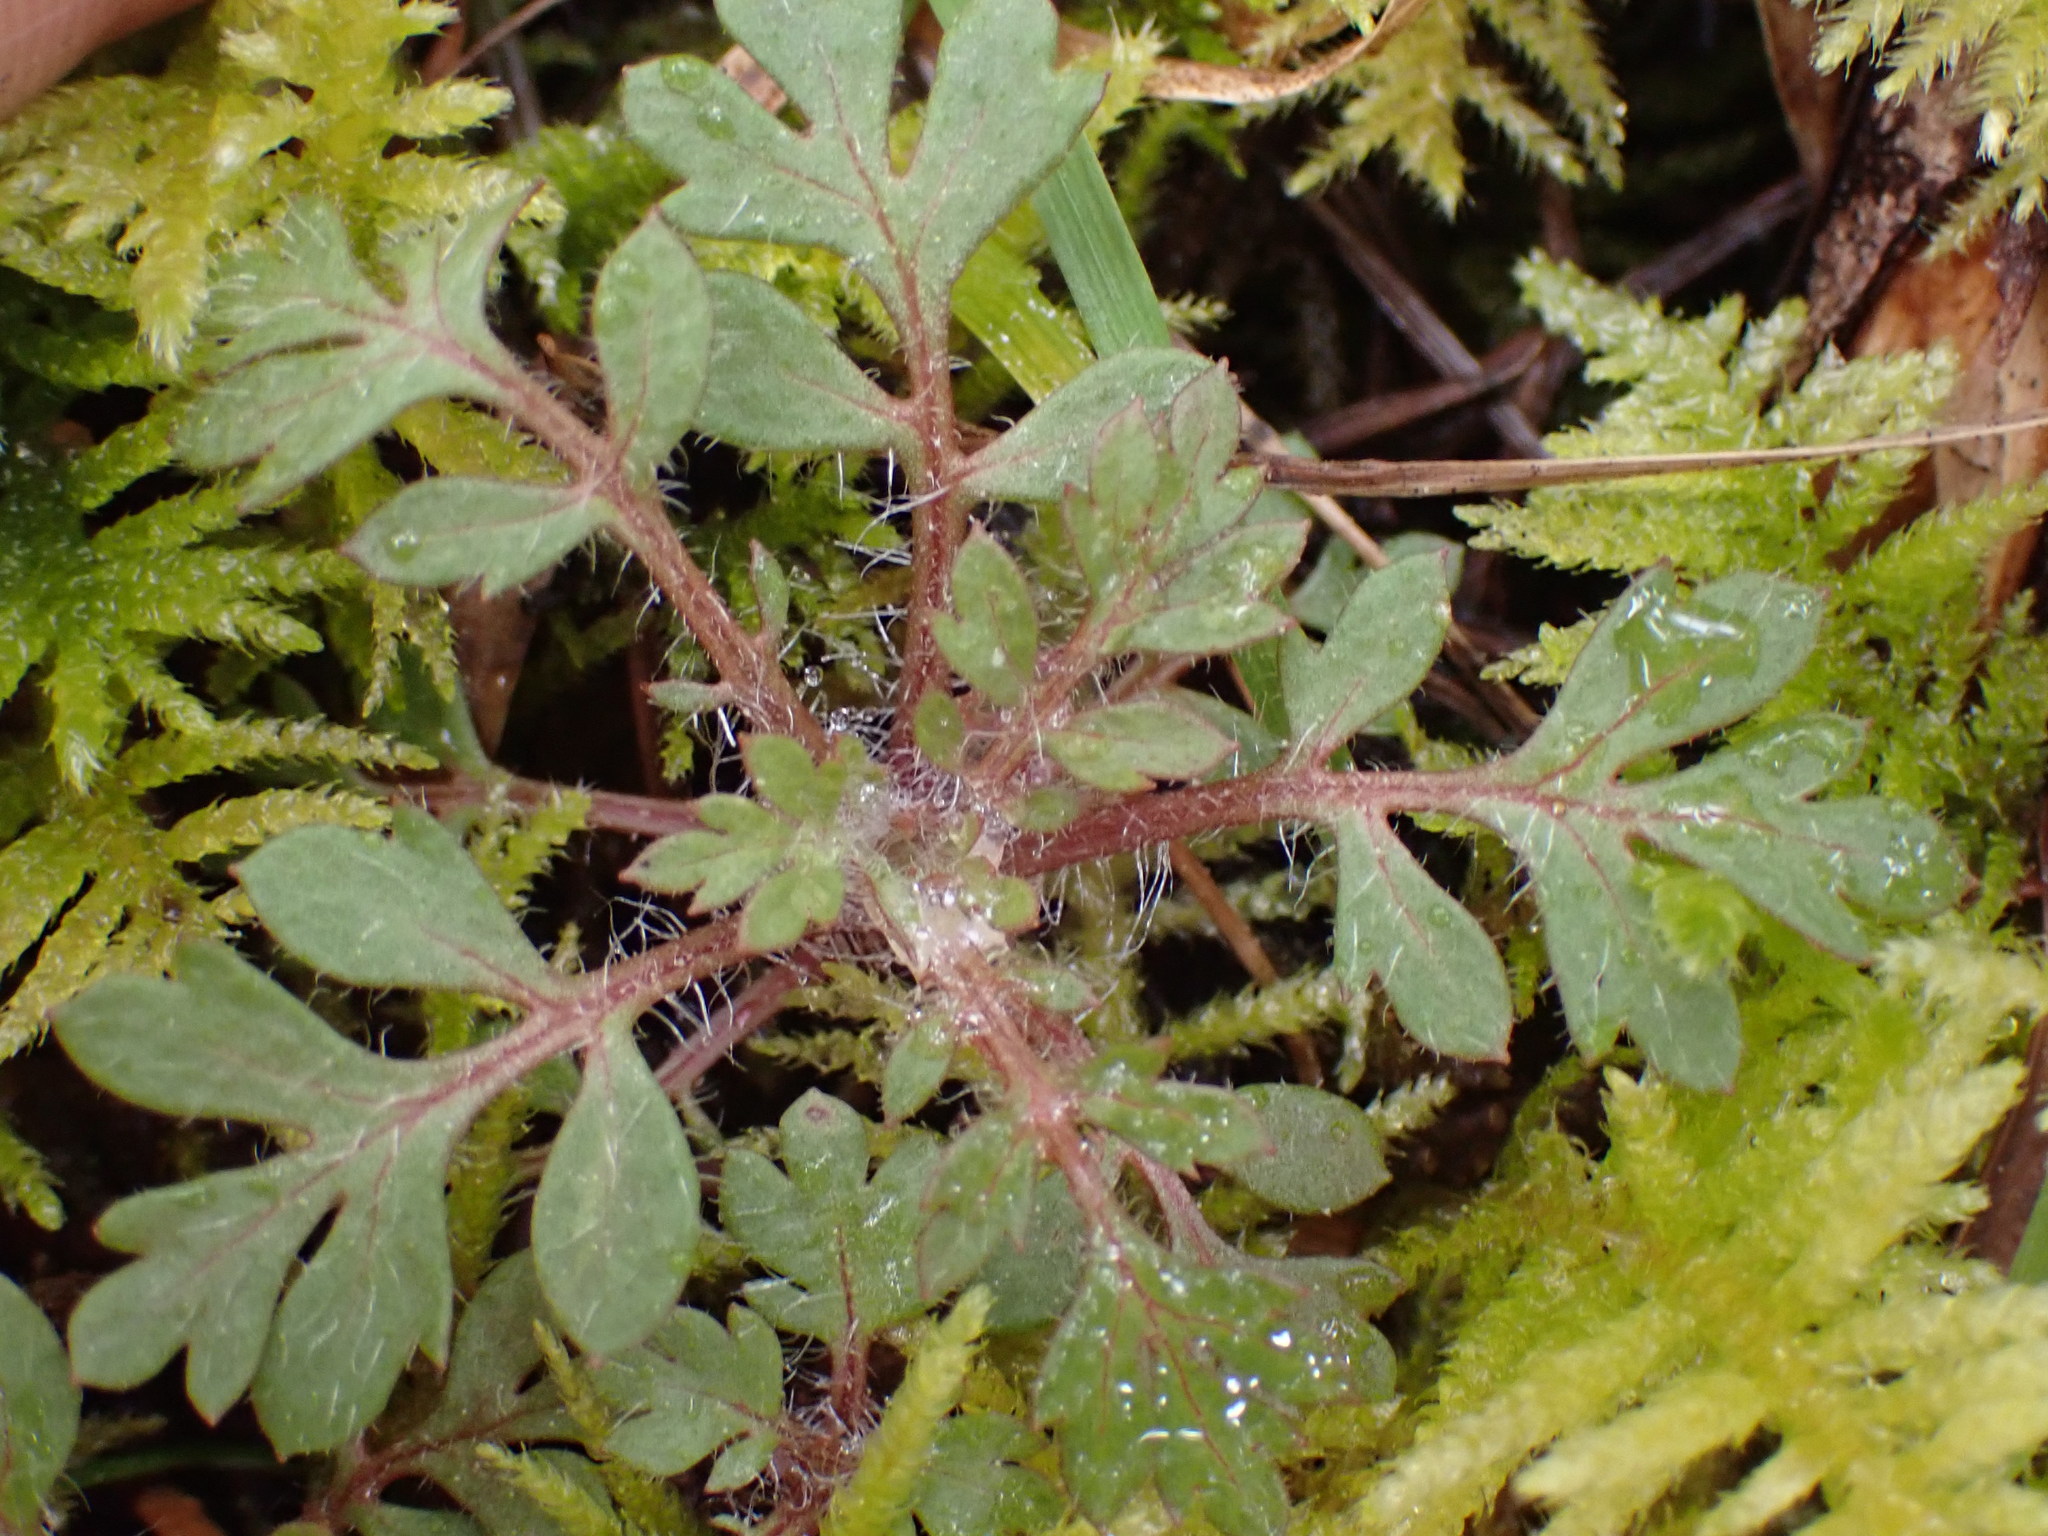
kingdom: Plantae
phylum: Tracheophyta
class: Magnoliopsida
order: Ericales
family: Polemoniaceae
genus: Collomia
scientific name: Collomia heterophylla
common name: Variable-leaved collomia
